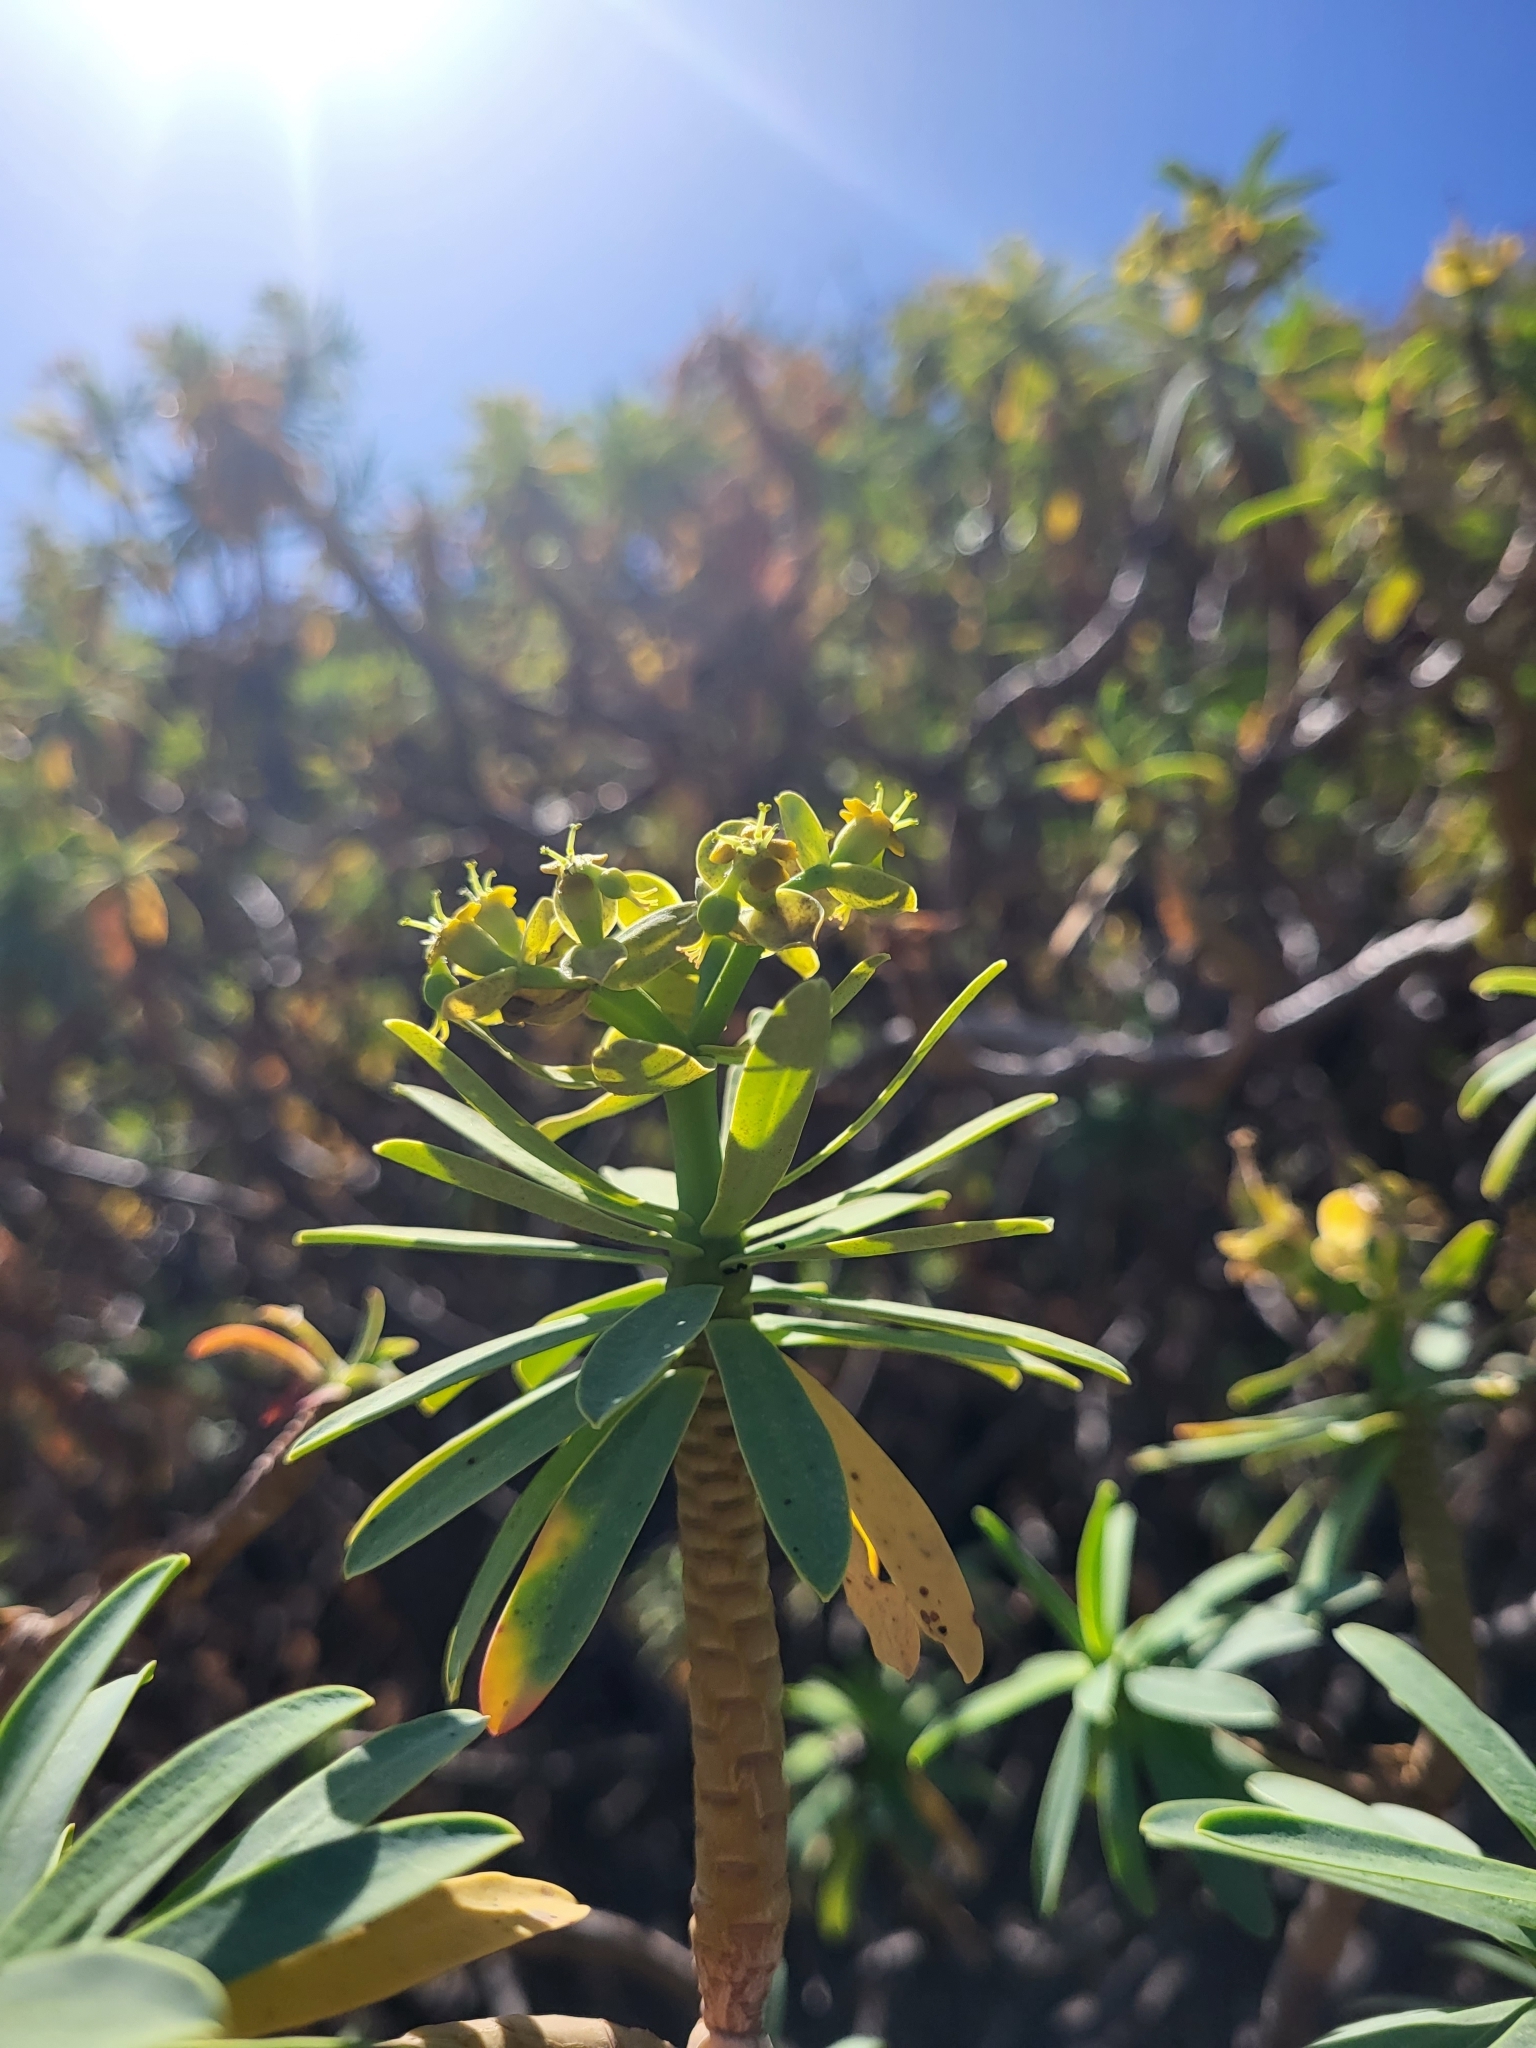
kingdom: Plantae
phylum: Tracheophyta
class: Magnoliopsida
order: Malpighiales
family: Euphorbiaceae
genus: Euphorbia
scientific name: Euphorbia tuckeyana
